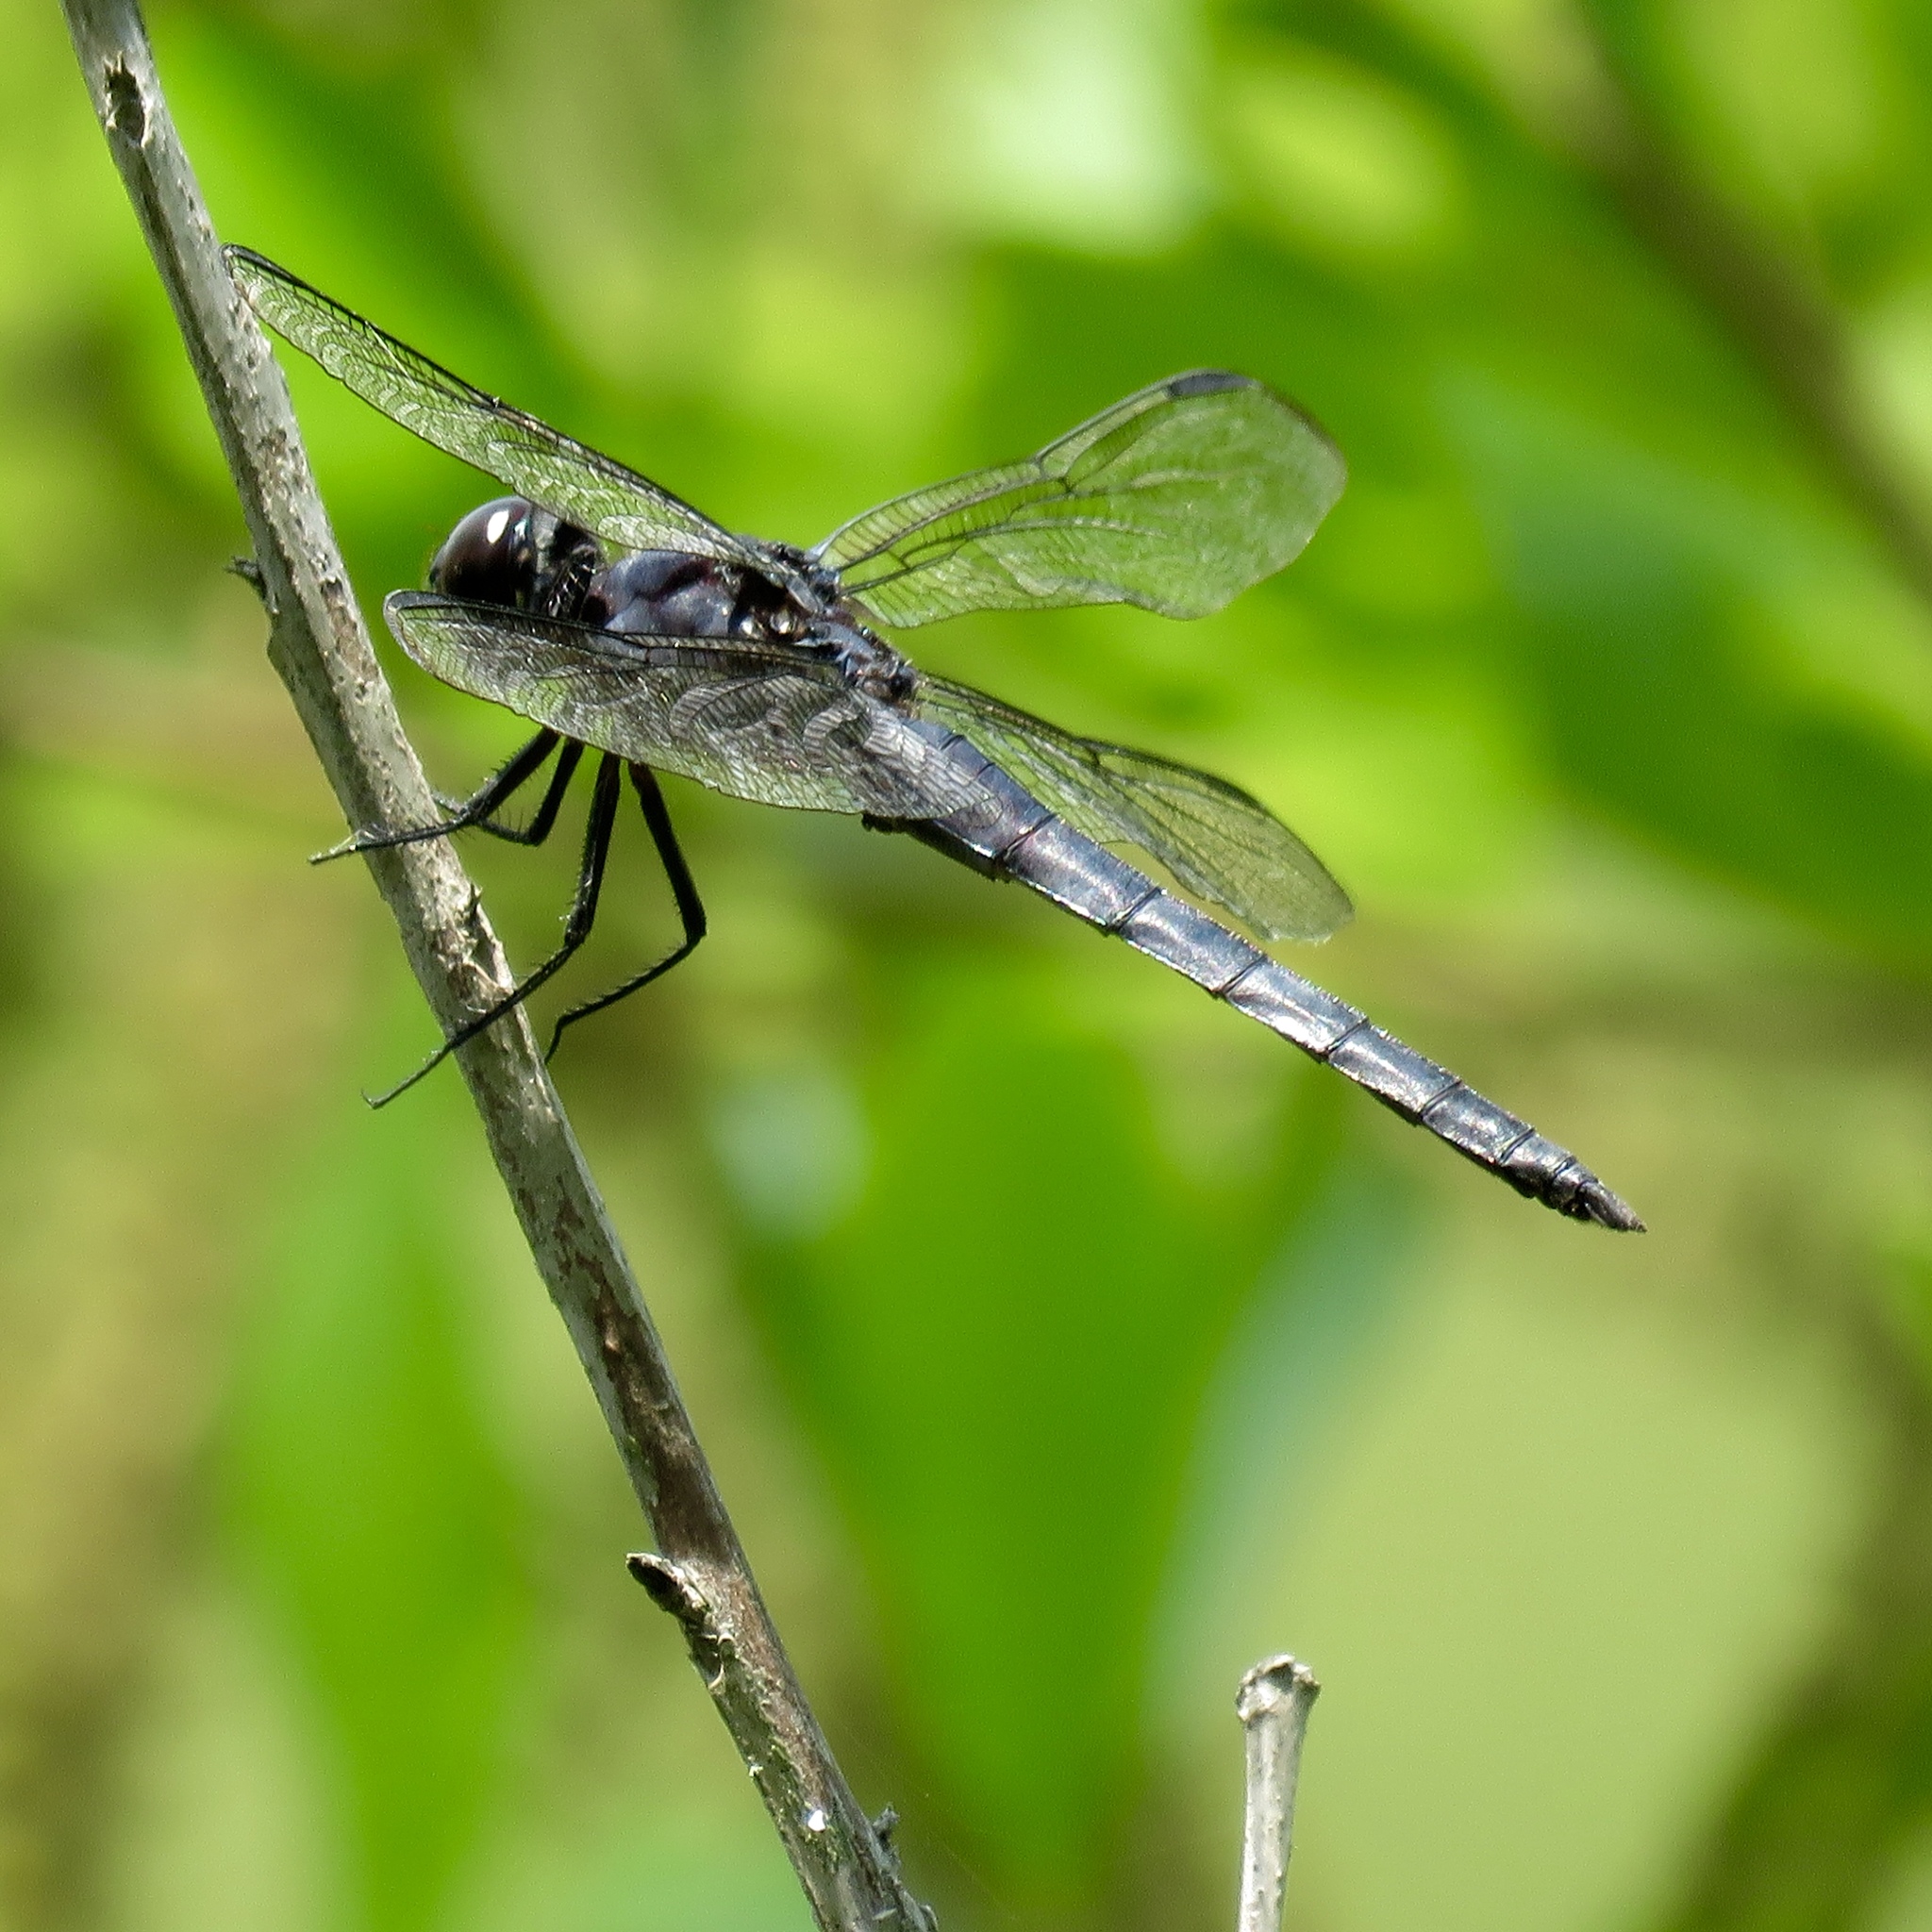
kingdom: Animalia
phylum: Arthropoda
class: Insecta
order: Odonata
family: Libellulidae
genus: Libellula
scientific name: Libellula incesta
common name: Slaty skimmer
